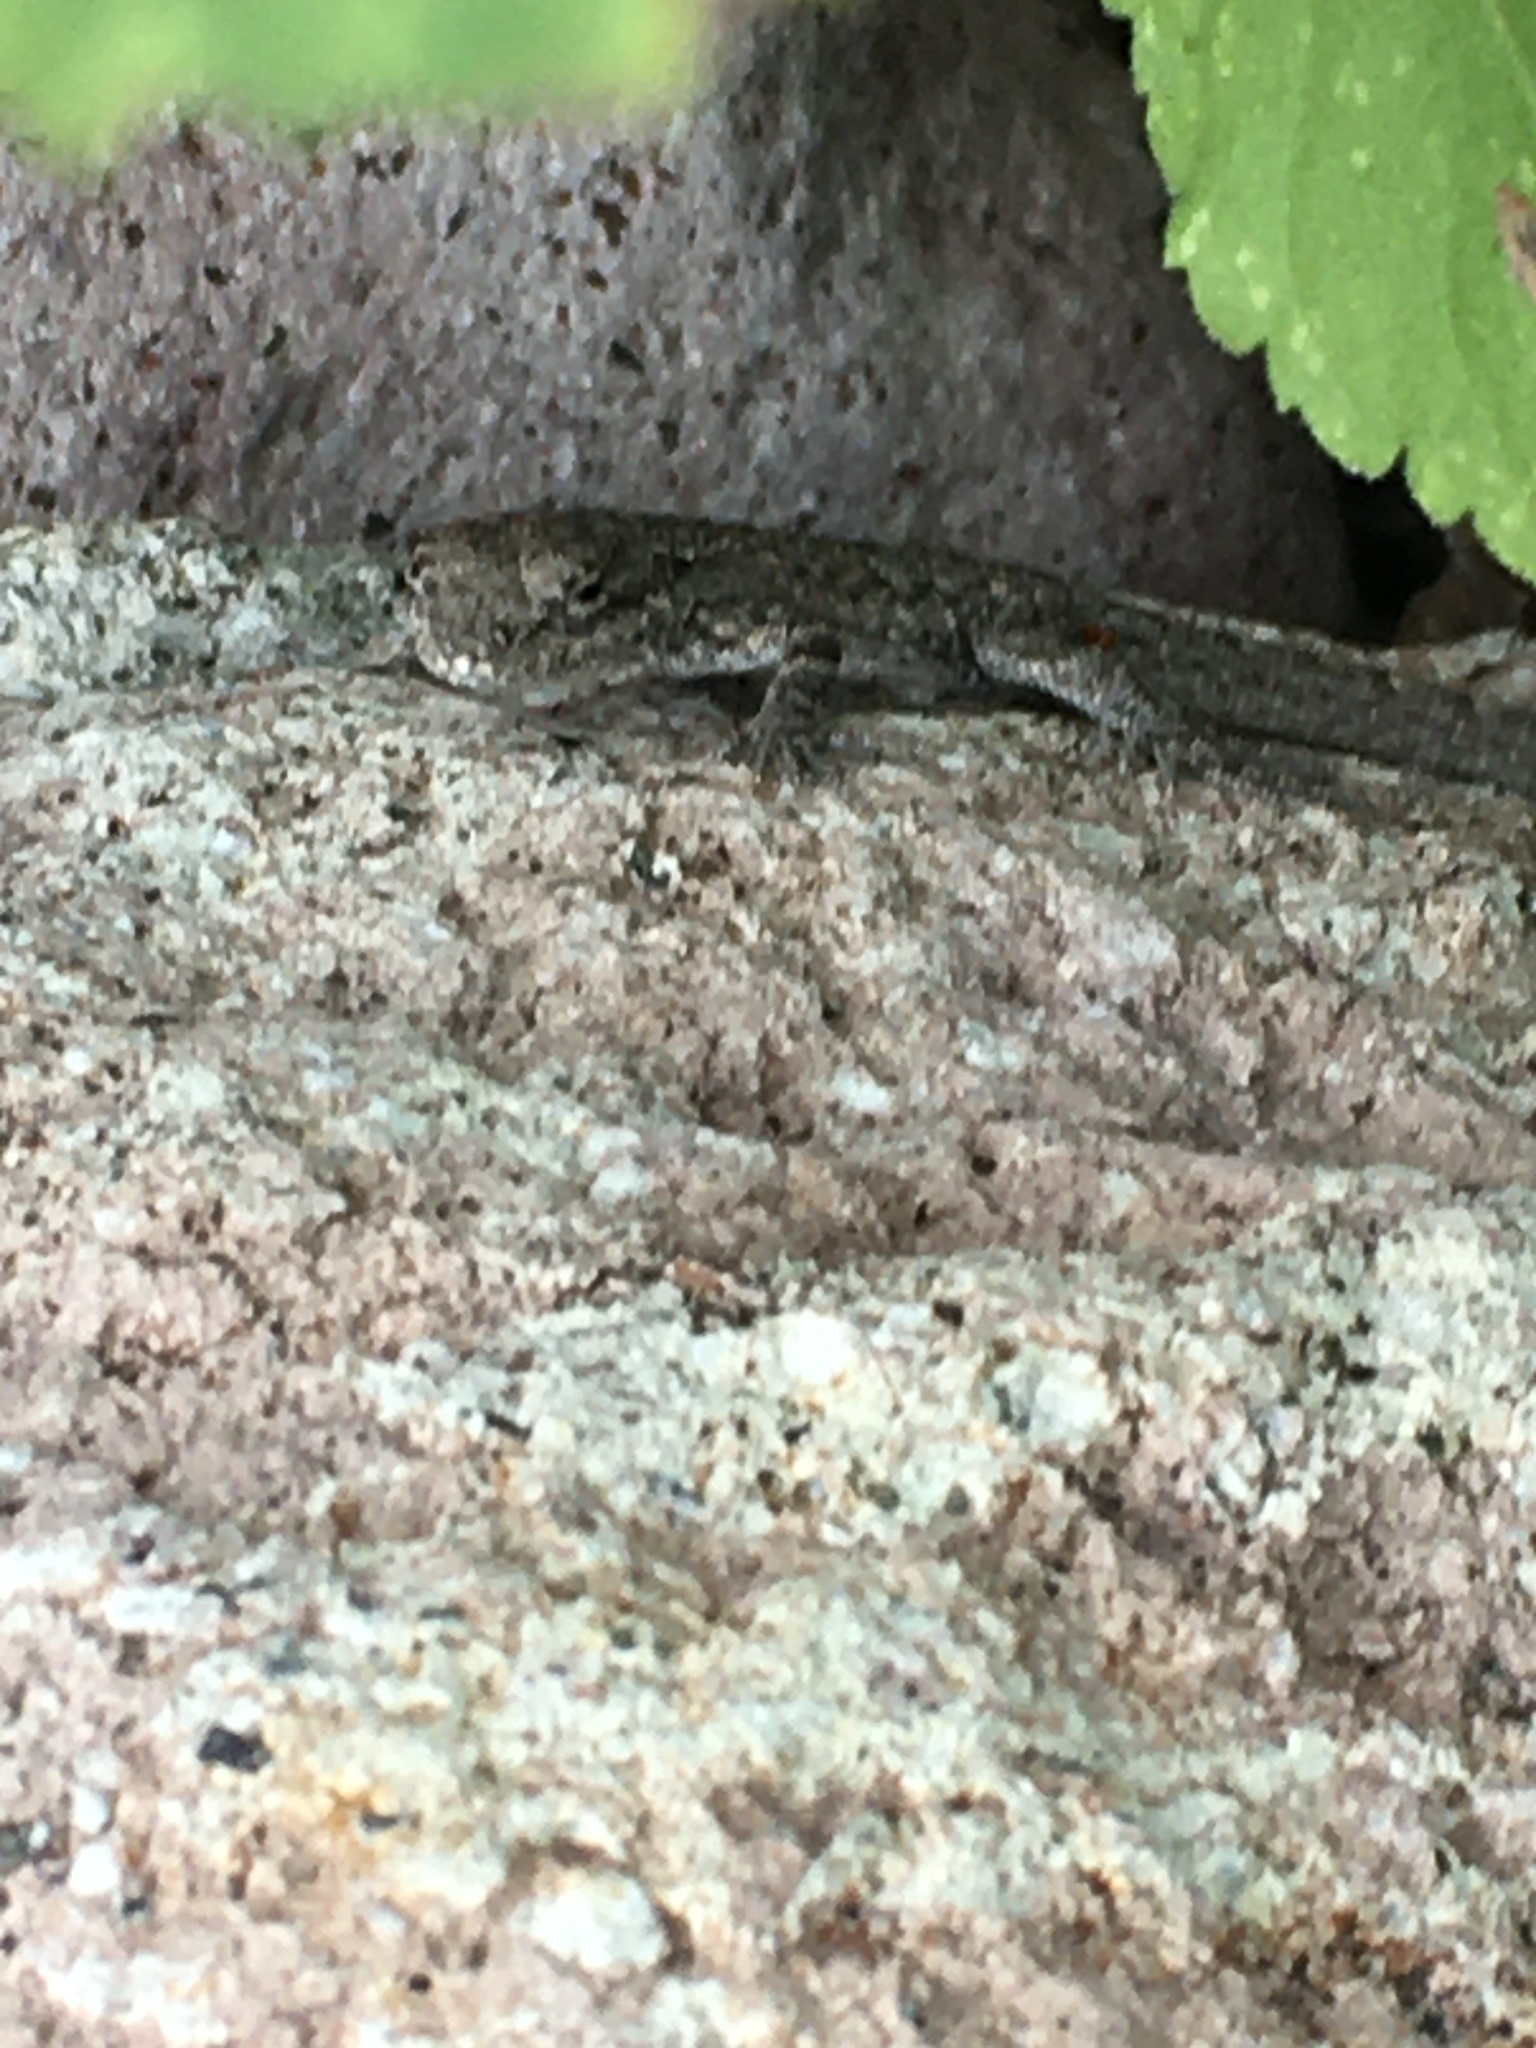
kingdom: Animalia
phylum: Chordata
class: Squamata
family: Phrynosomatidae
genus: Urosaurus
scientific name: Urosaurus nigricauda
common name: Baja california brush lizard
